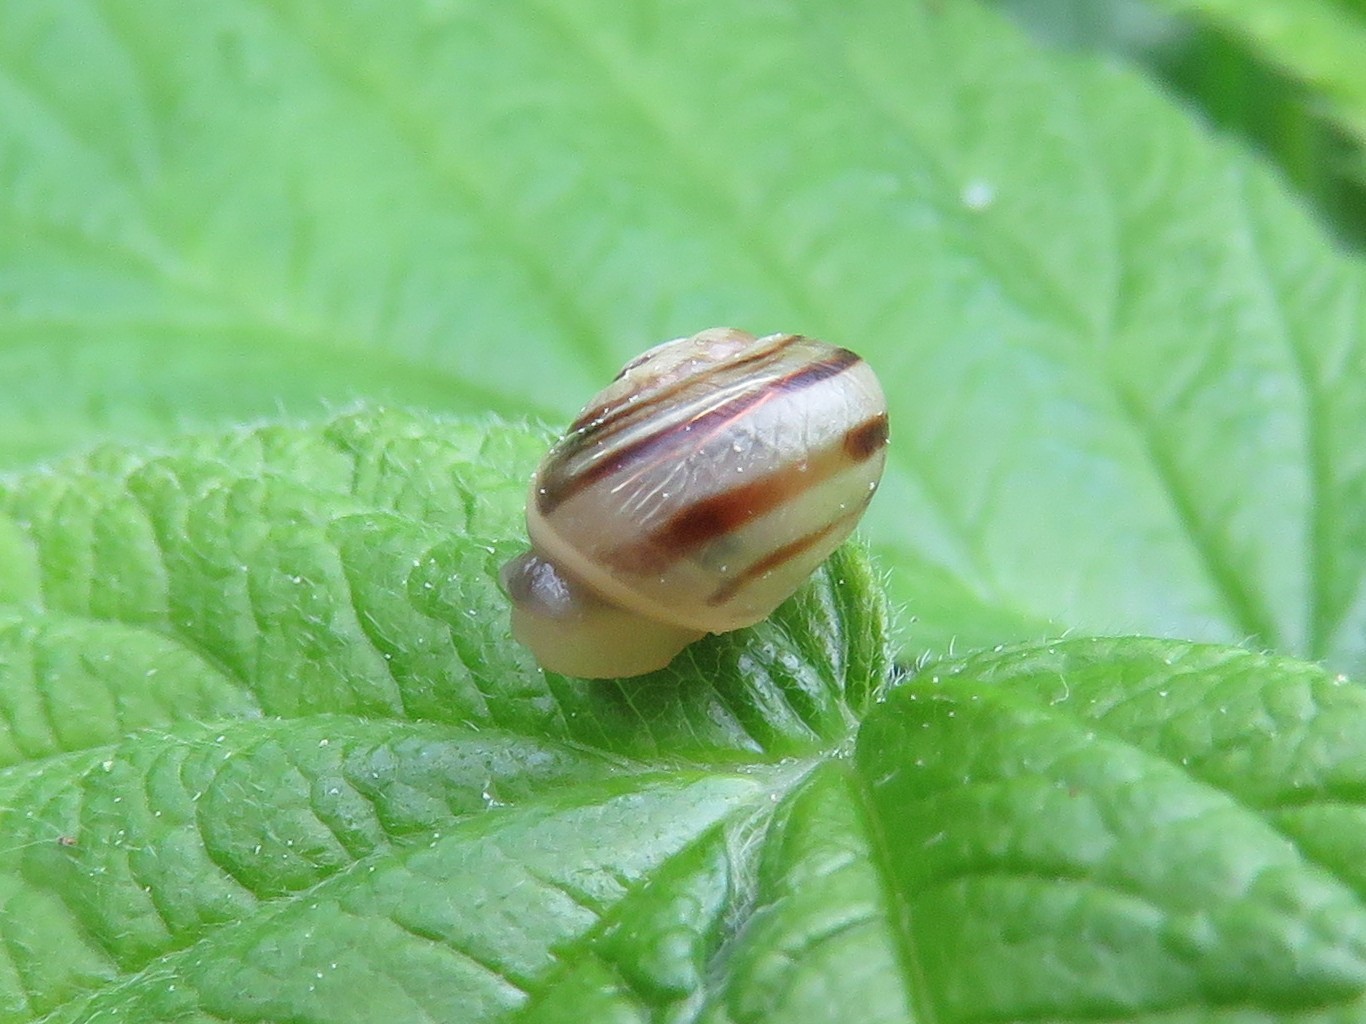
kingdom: Animalia
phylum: Mollusca
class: Gastropoda
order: Stylommatophora
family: Helicidae
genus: Cepaea
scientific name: Cepaea
